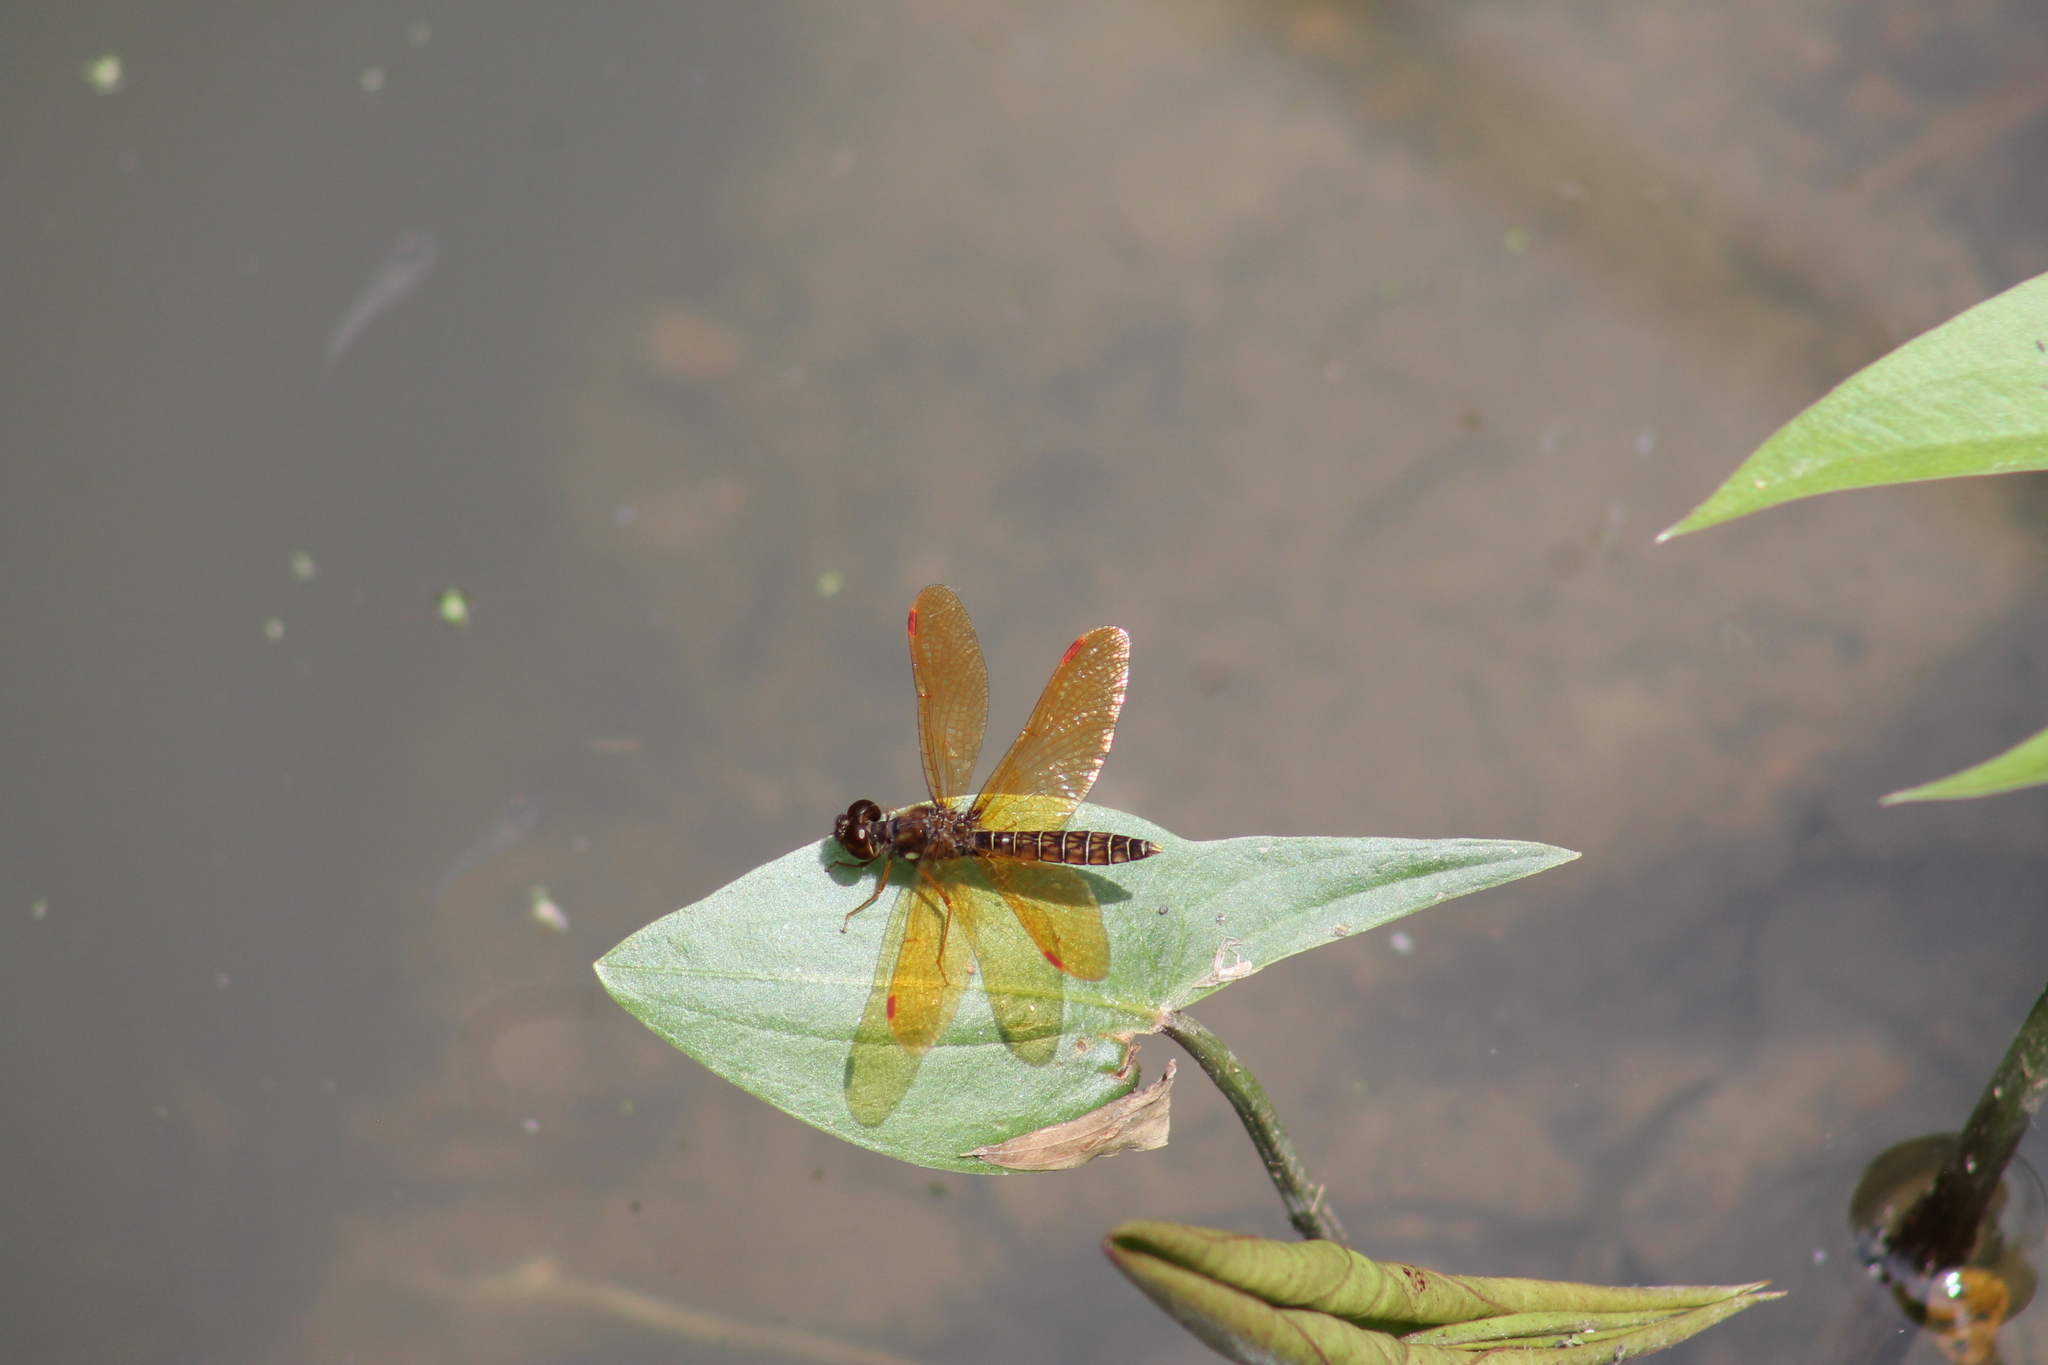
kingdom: Animalia
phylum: Arthropoda
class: Insecta
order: Odonata
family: Libellulidae
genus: Perithemis
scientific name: Perithemis tenera
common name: Eastern amberwing
